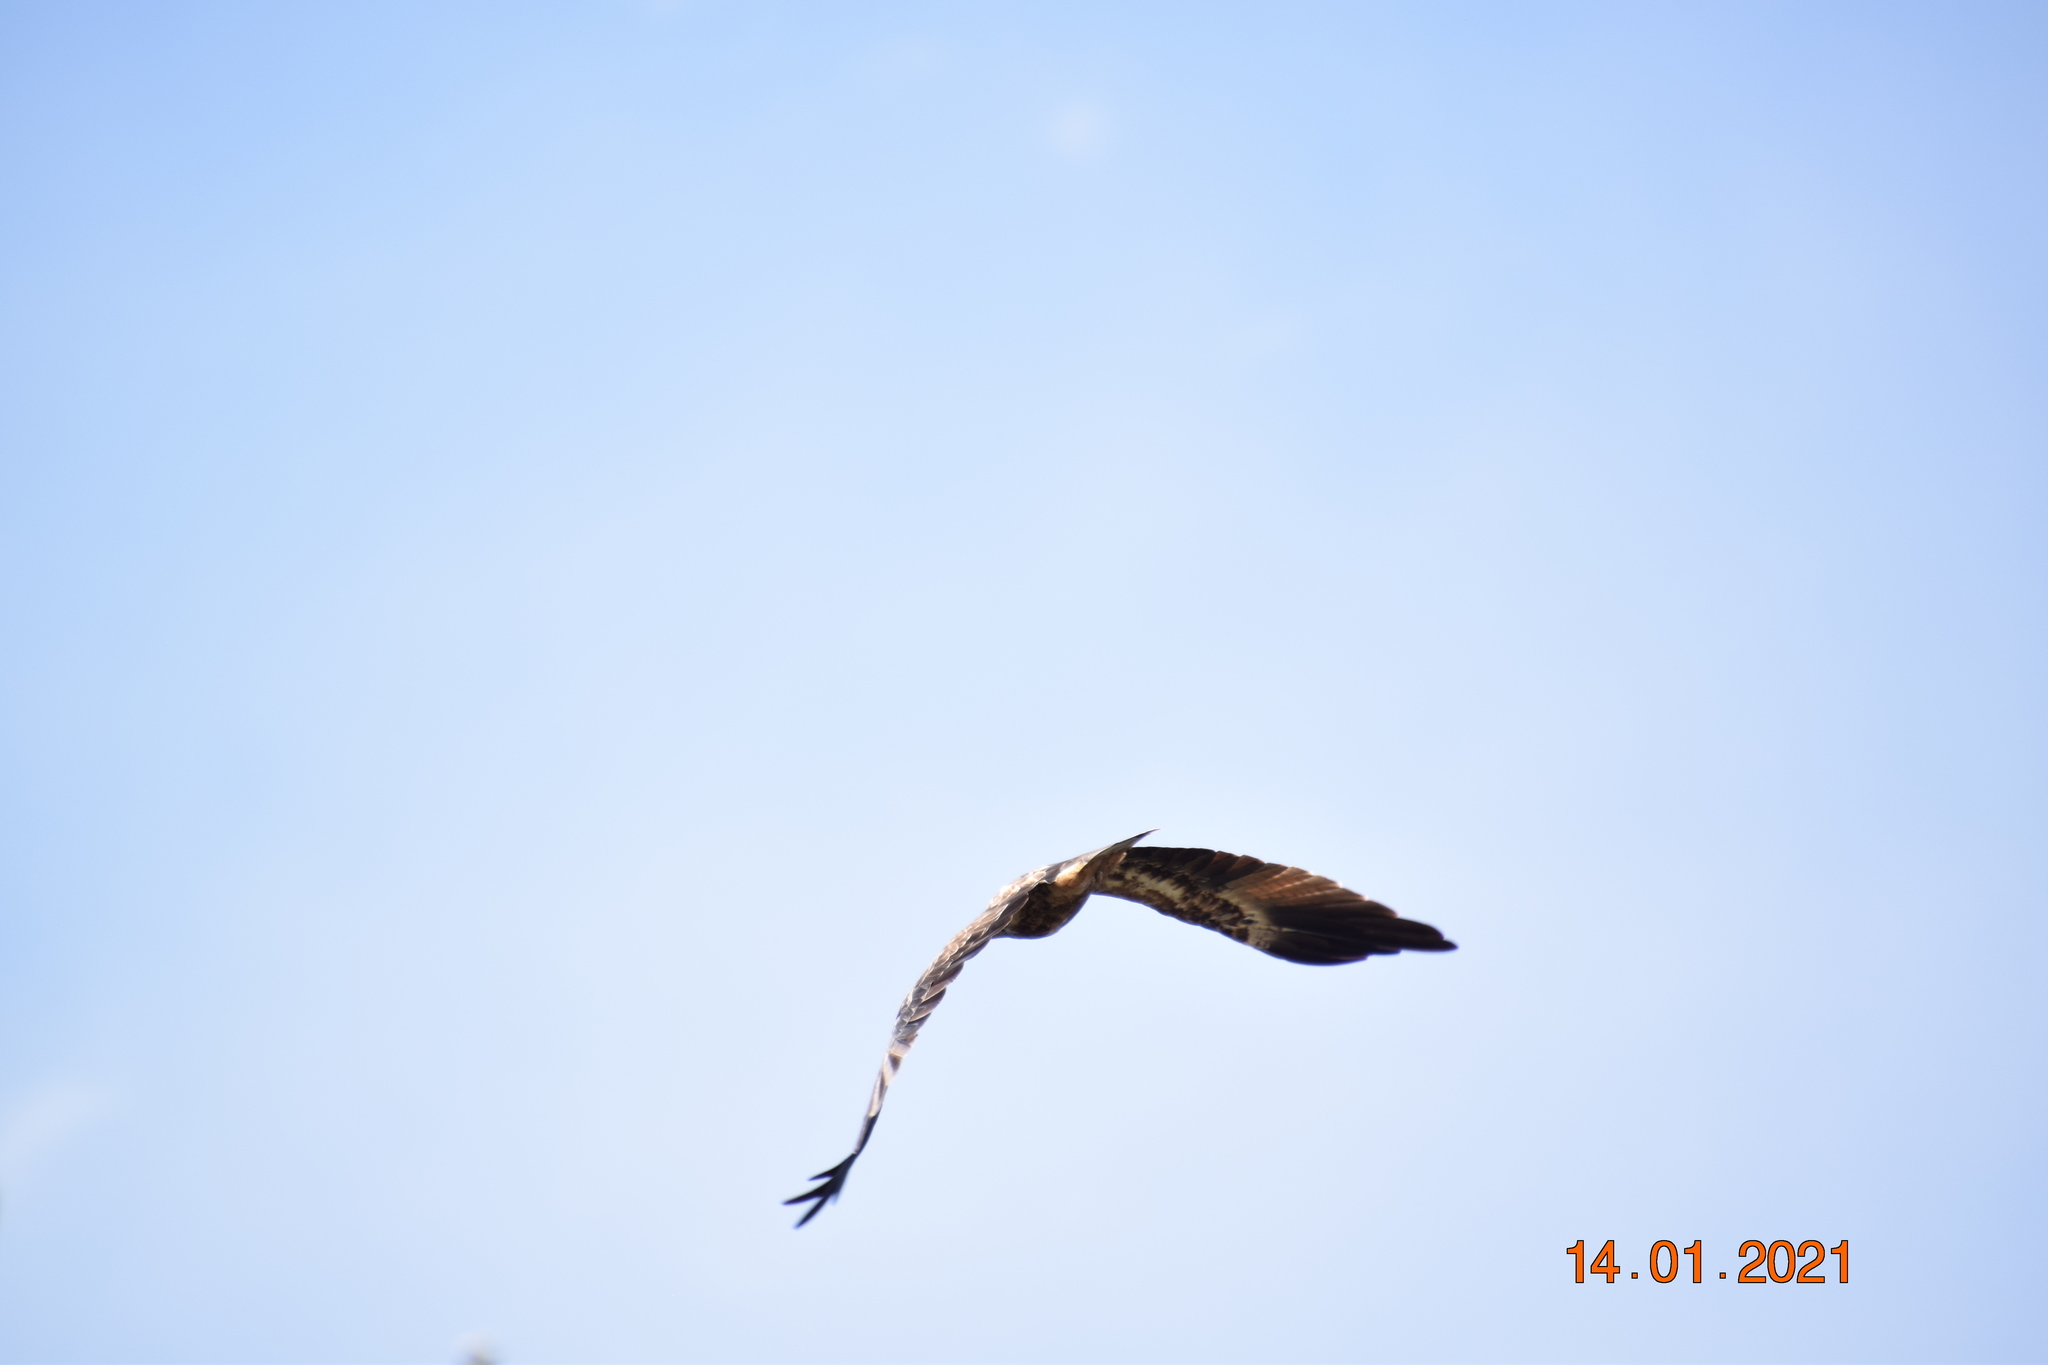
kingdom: Animalia
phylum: Chordata
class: Aves
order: Accipitriformes
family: Accipitridae
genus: Haliaeetus
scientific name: Haliaeetus leucogaster
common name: White-bellied sea eagle
